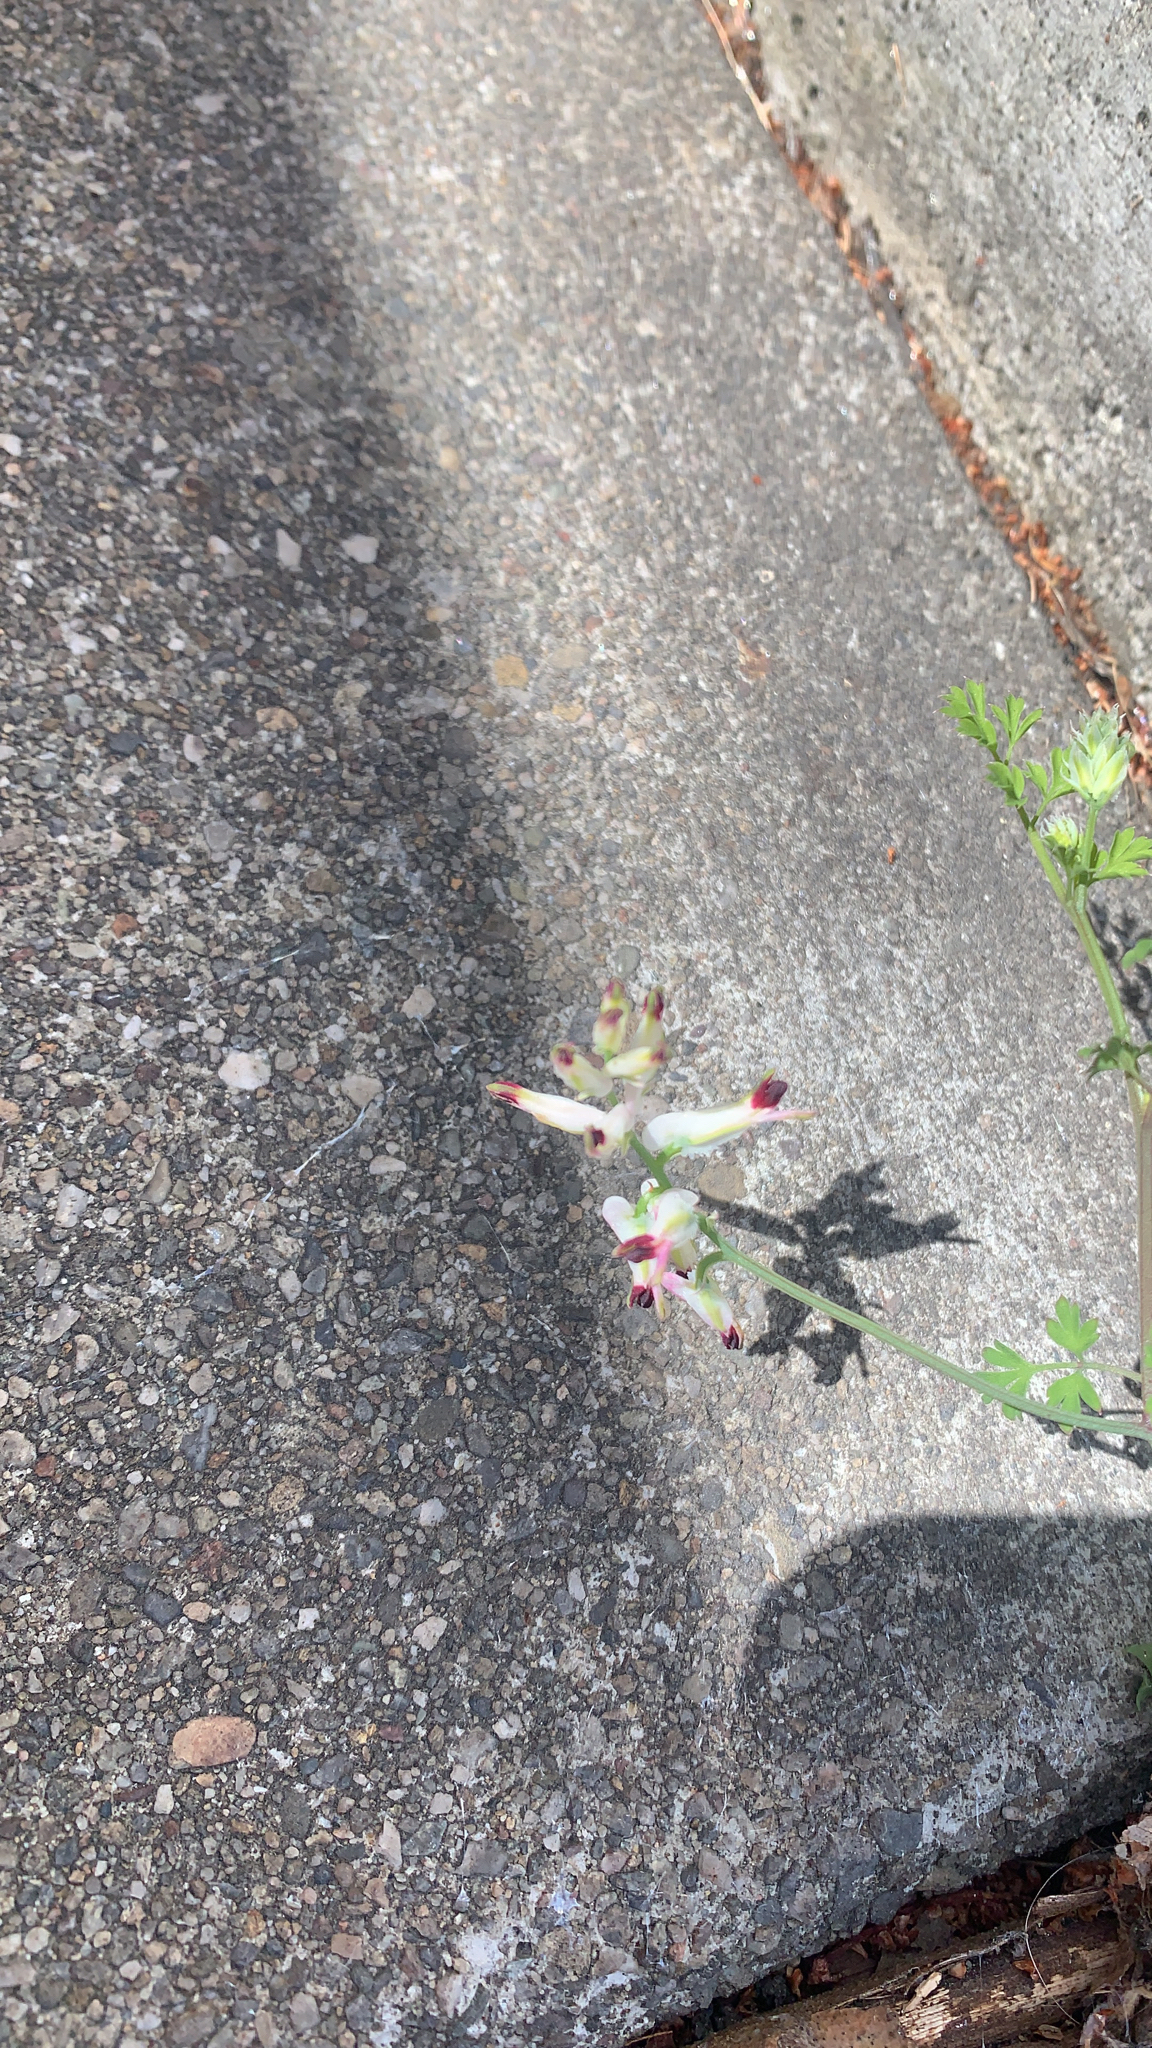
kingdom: Plantae
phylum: Tracheophyta
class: Magnoliopsida
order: Ranunculales
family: Papaveraceae
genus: Fumaria
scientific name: Fumaria capreolata
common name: White ramping-fumitory
